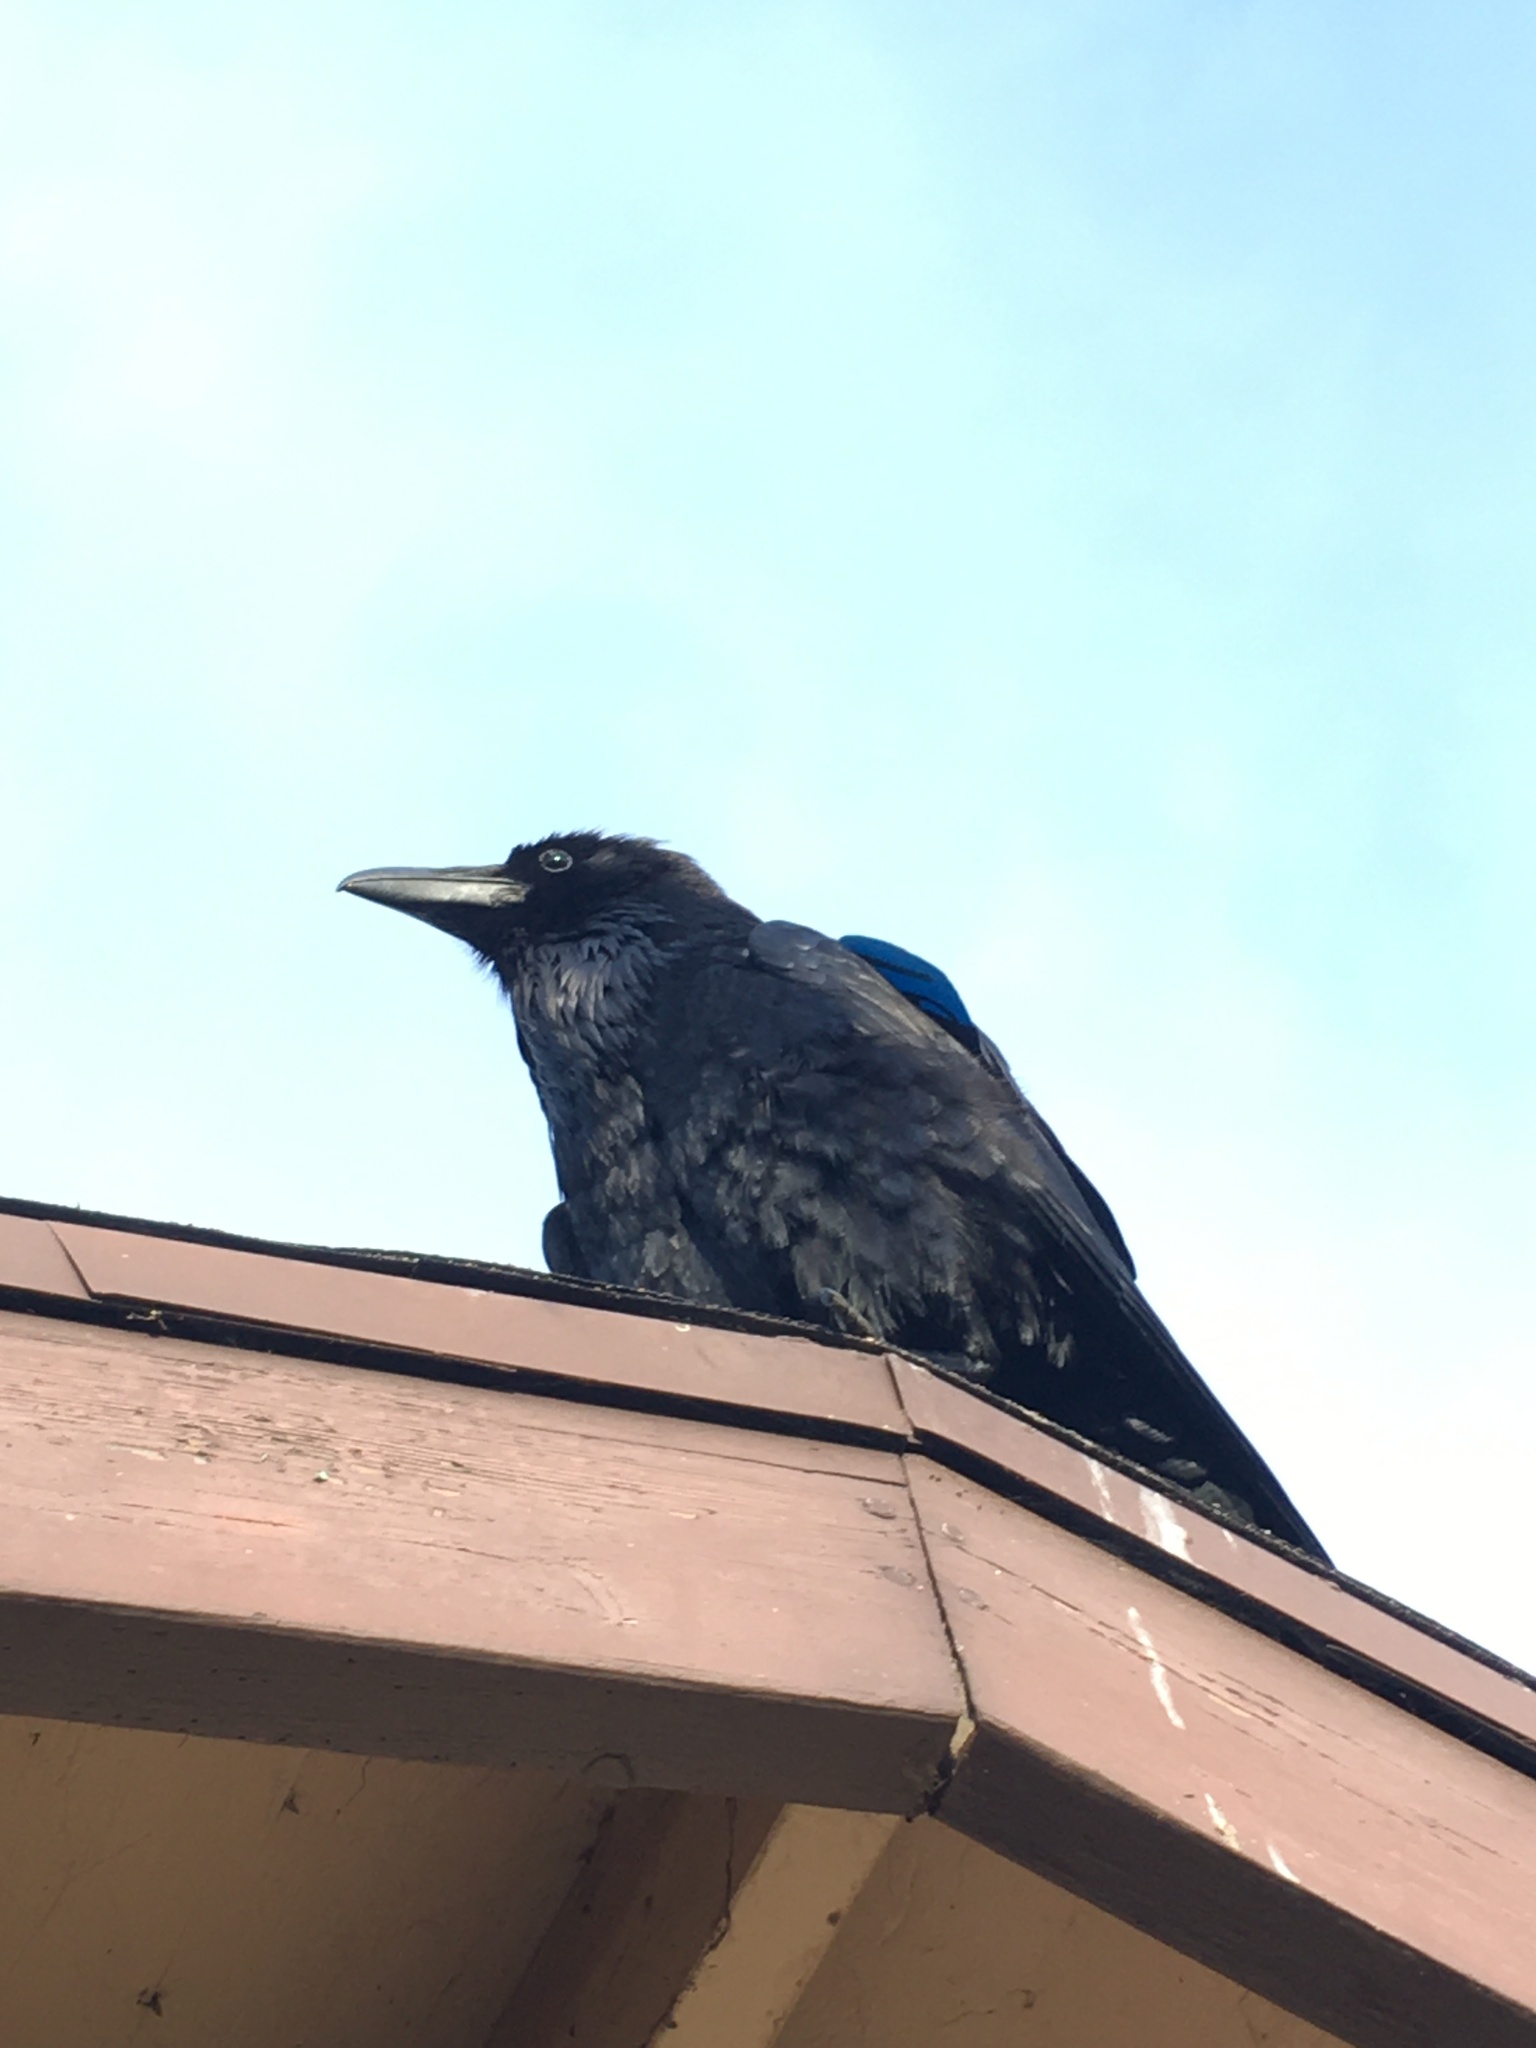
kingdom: Animalia
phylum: Chordata
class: Aves
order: Passeriformes
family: Corvidae
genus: Corvus
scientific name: Corvus corax
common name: Common raven
